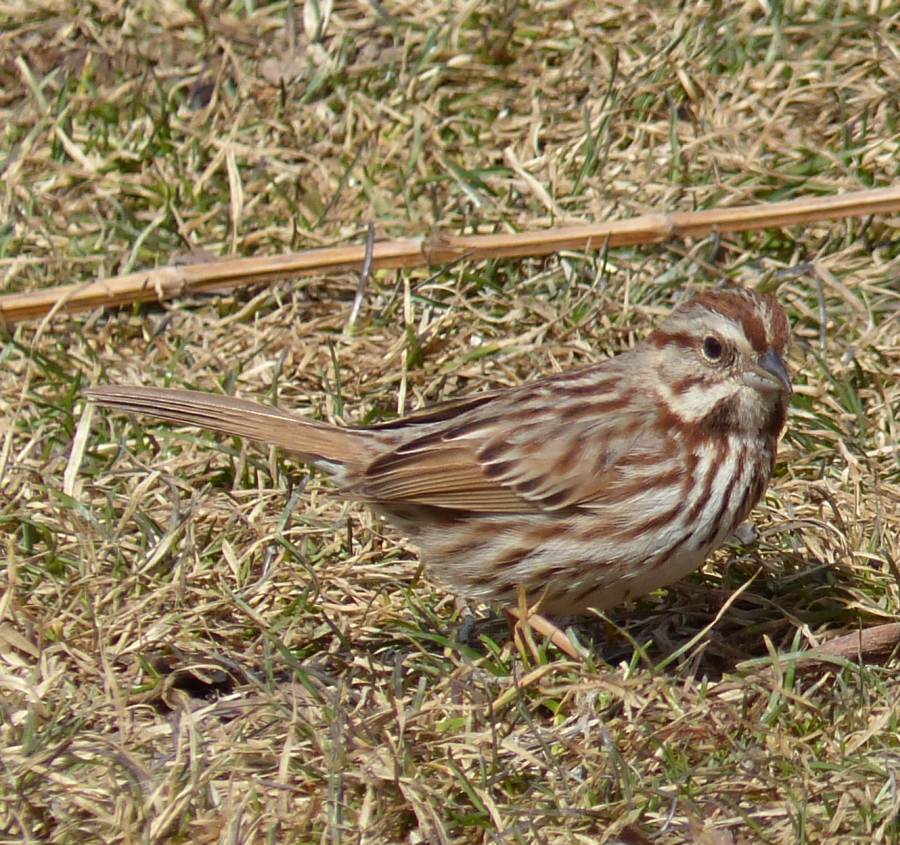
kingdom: Animalia
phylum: Chordata
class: Aves
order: Passeriformes
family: Passerellidae
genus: Melospiza
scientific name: Melospiza melodia
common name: Song sparrow
